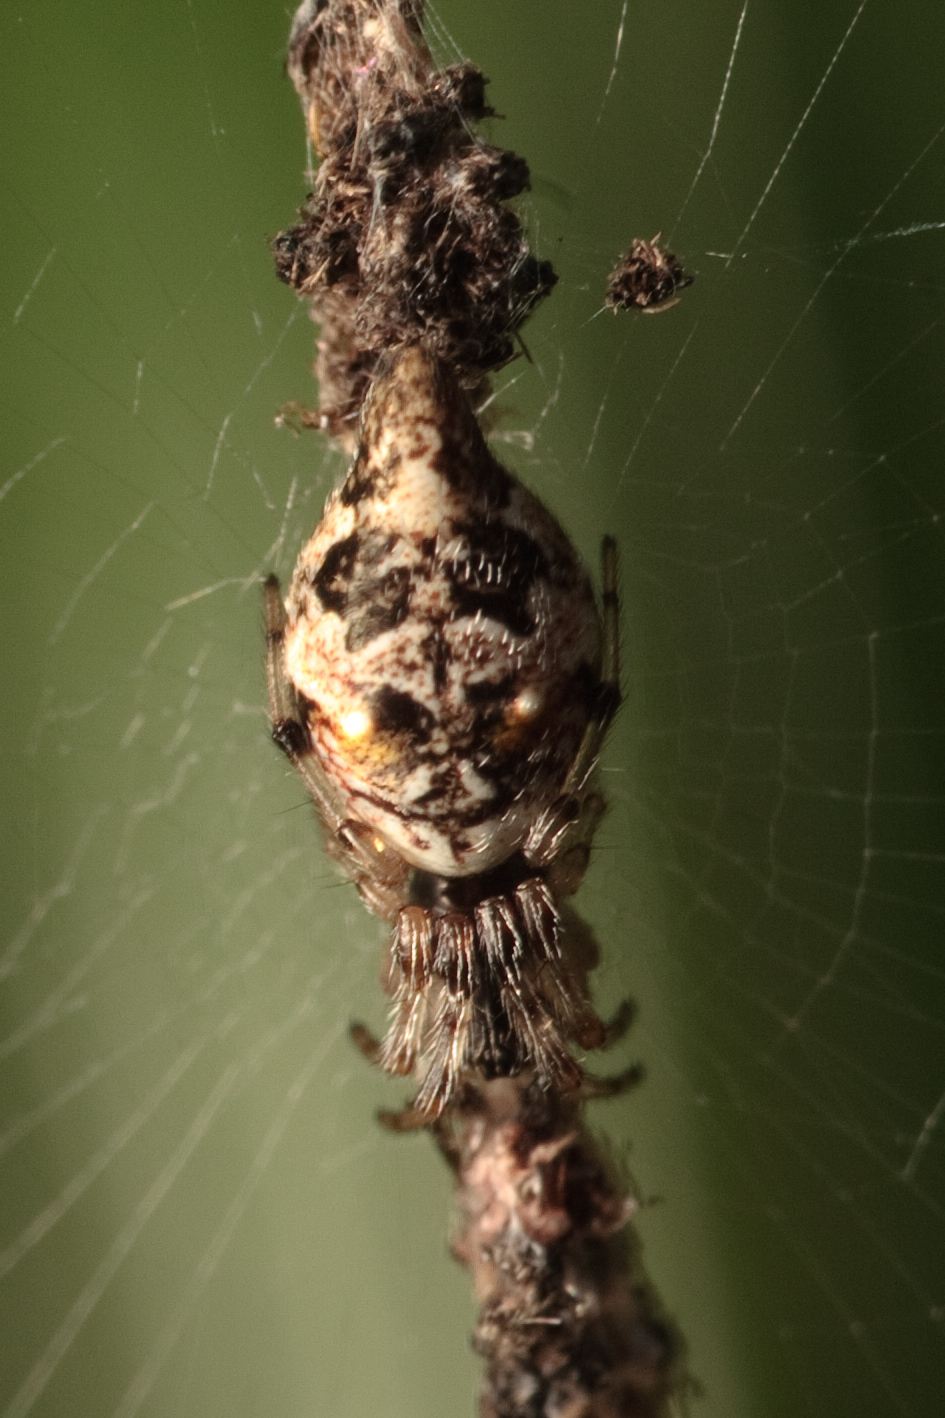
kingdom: Animalia
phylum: Arthropoda
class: Arachnida
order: Araneae
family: Araneidae
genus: Cyclosa
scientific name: Cyclosa turbinata
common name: Orb weavers
